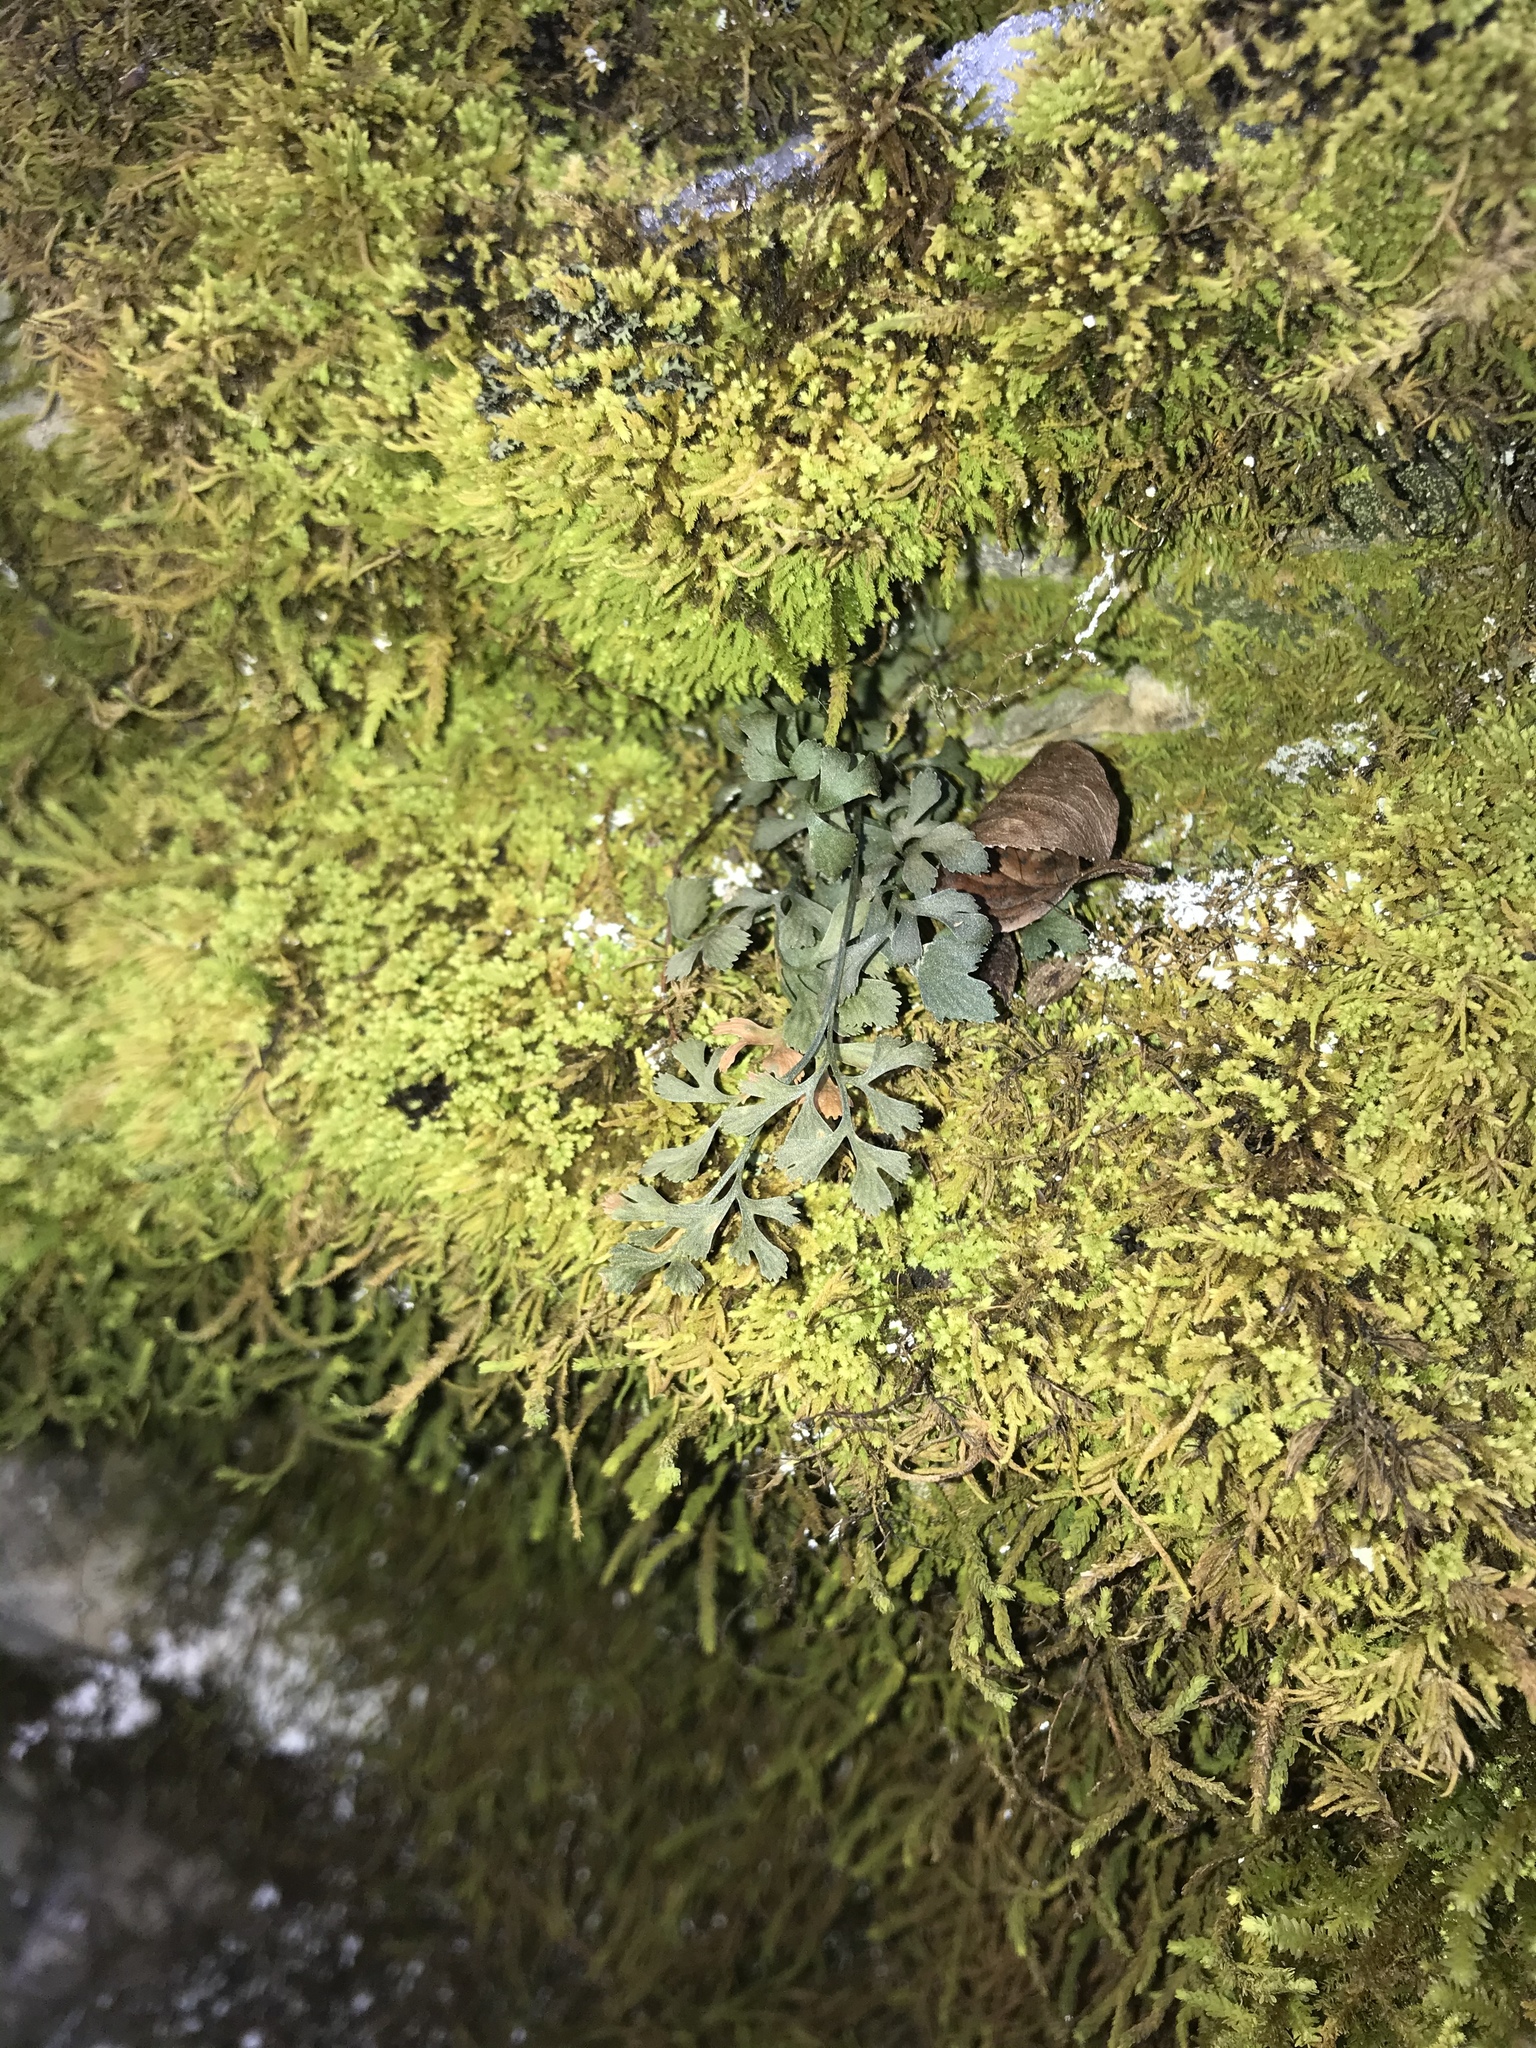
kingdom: Plantae
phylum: Tracheophyta
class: Polypodiopsida
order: Polypodiales
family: Aspleniaceae
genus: Asplenium
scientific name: Asplenium ruta-muraria
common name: Wall-rue
